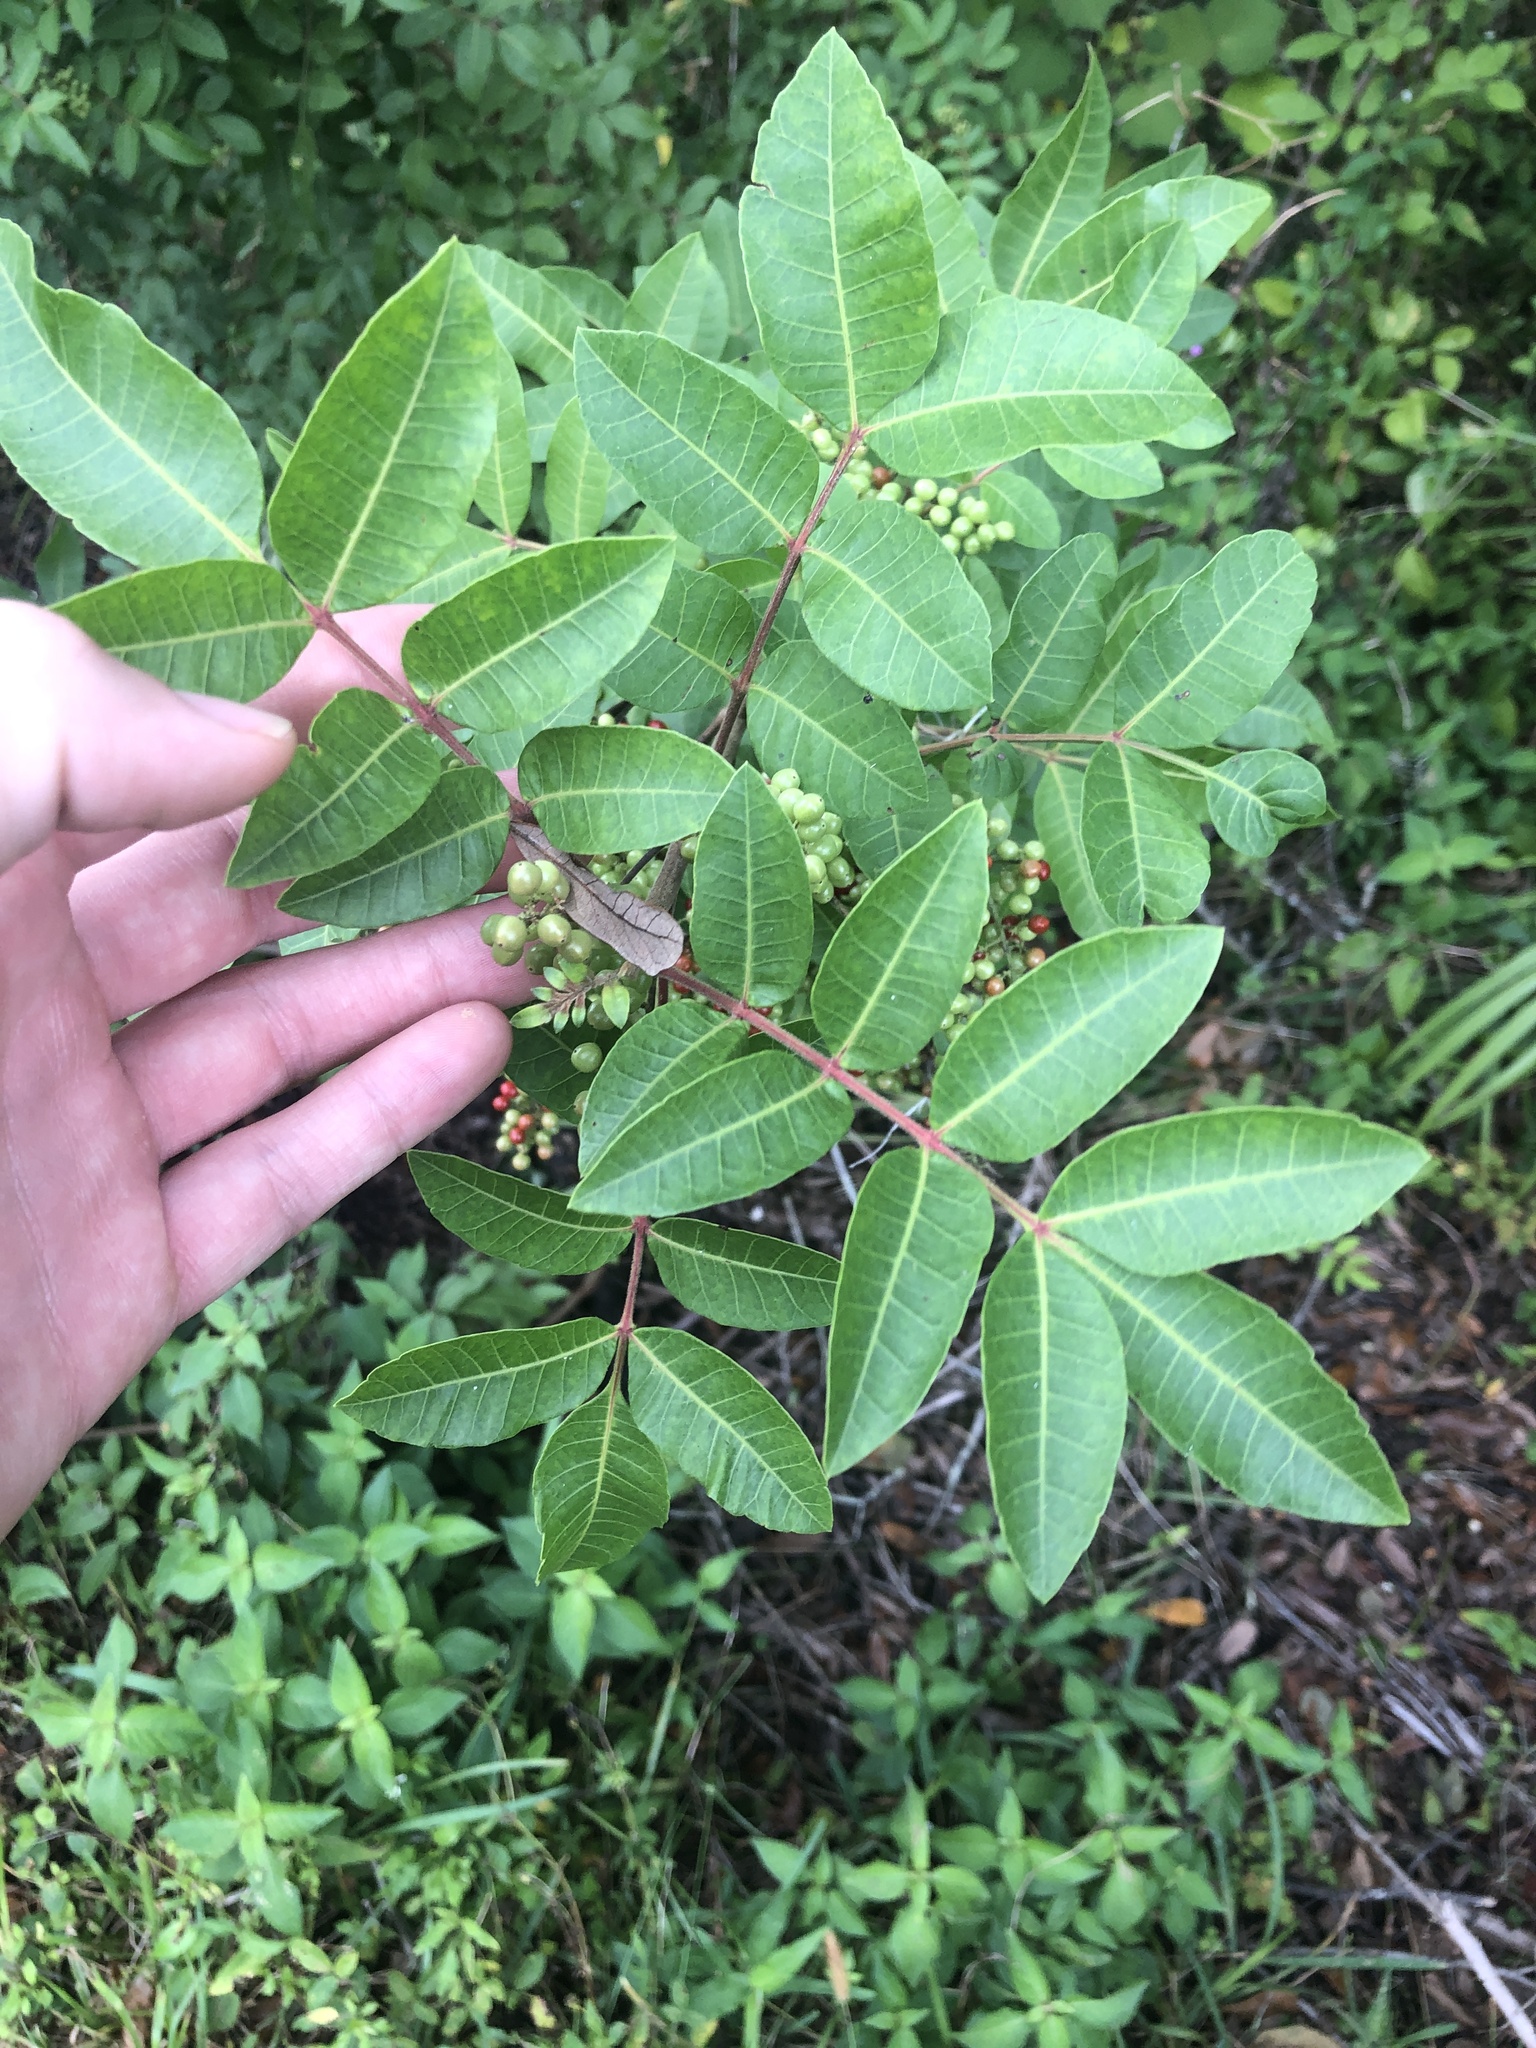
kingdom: Plantae
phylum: Tracheophyta
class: Magnoliopsida
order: Sapindales
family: Anacardiaceae
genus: Schinus
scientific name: Schinus terebinthifolia
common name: Brazilian peppertree
